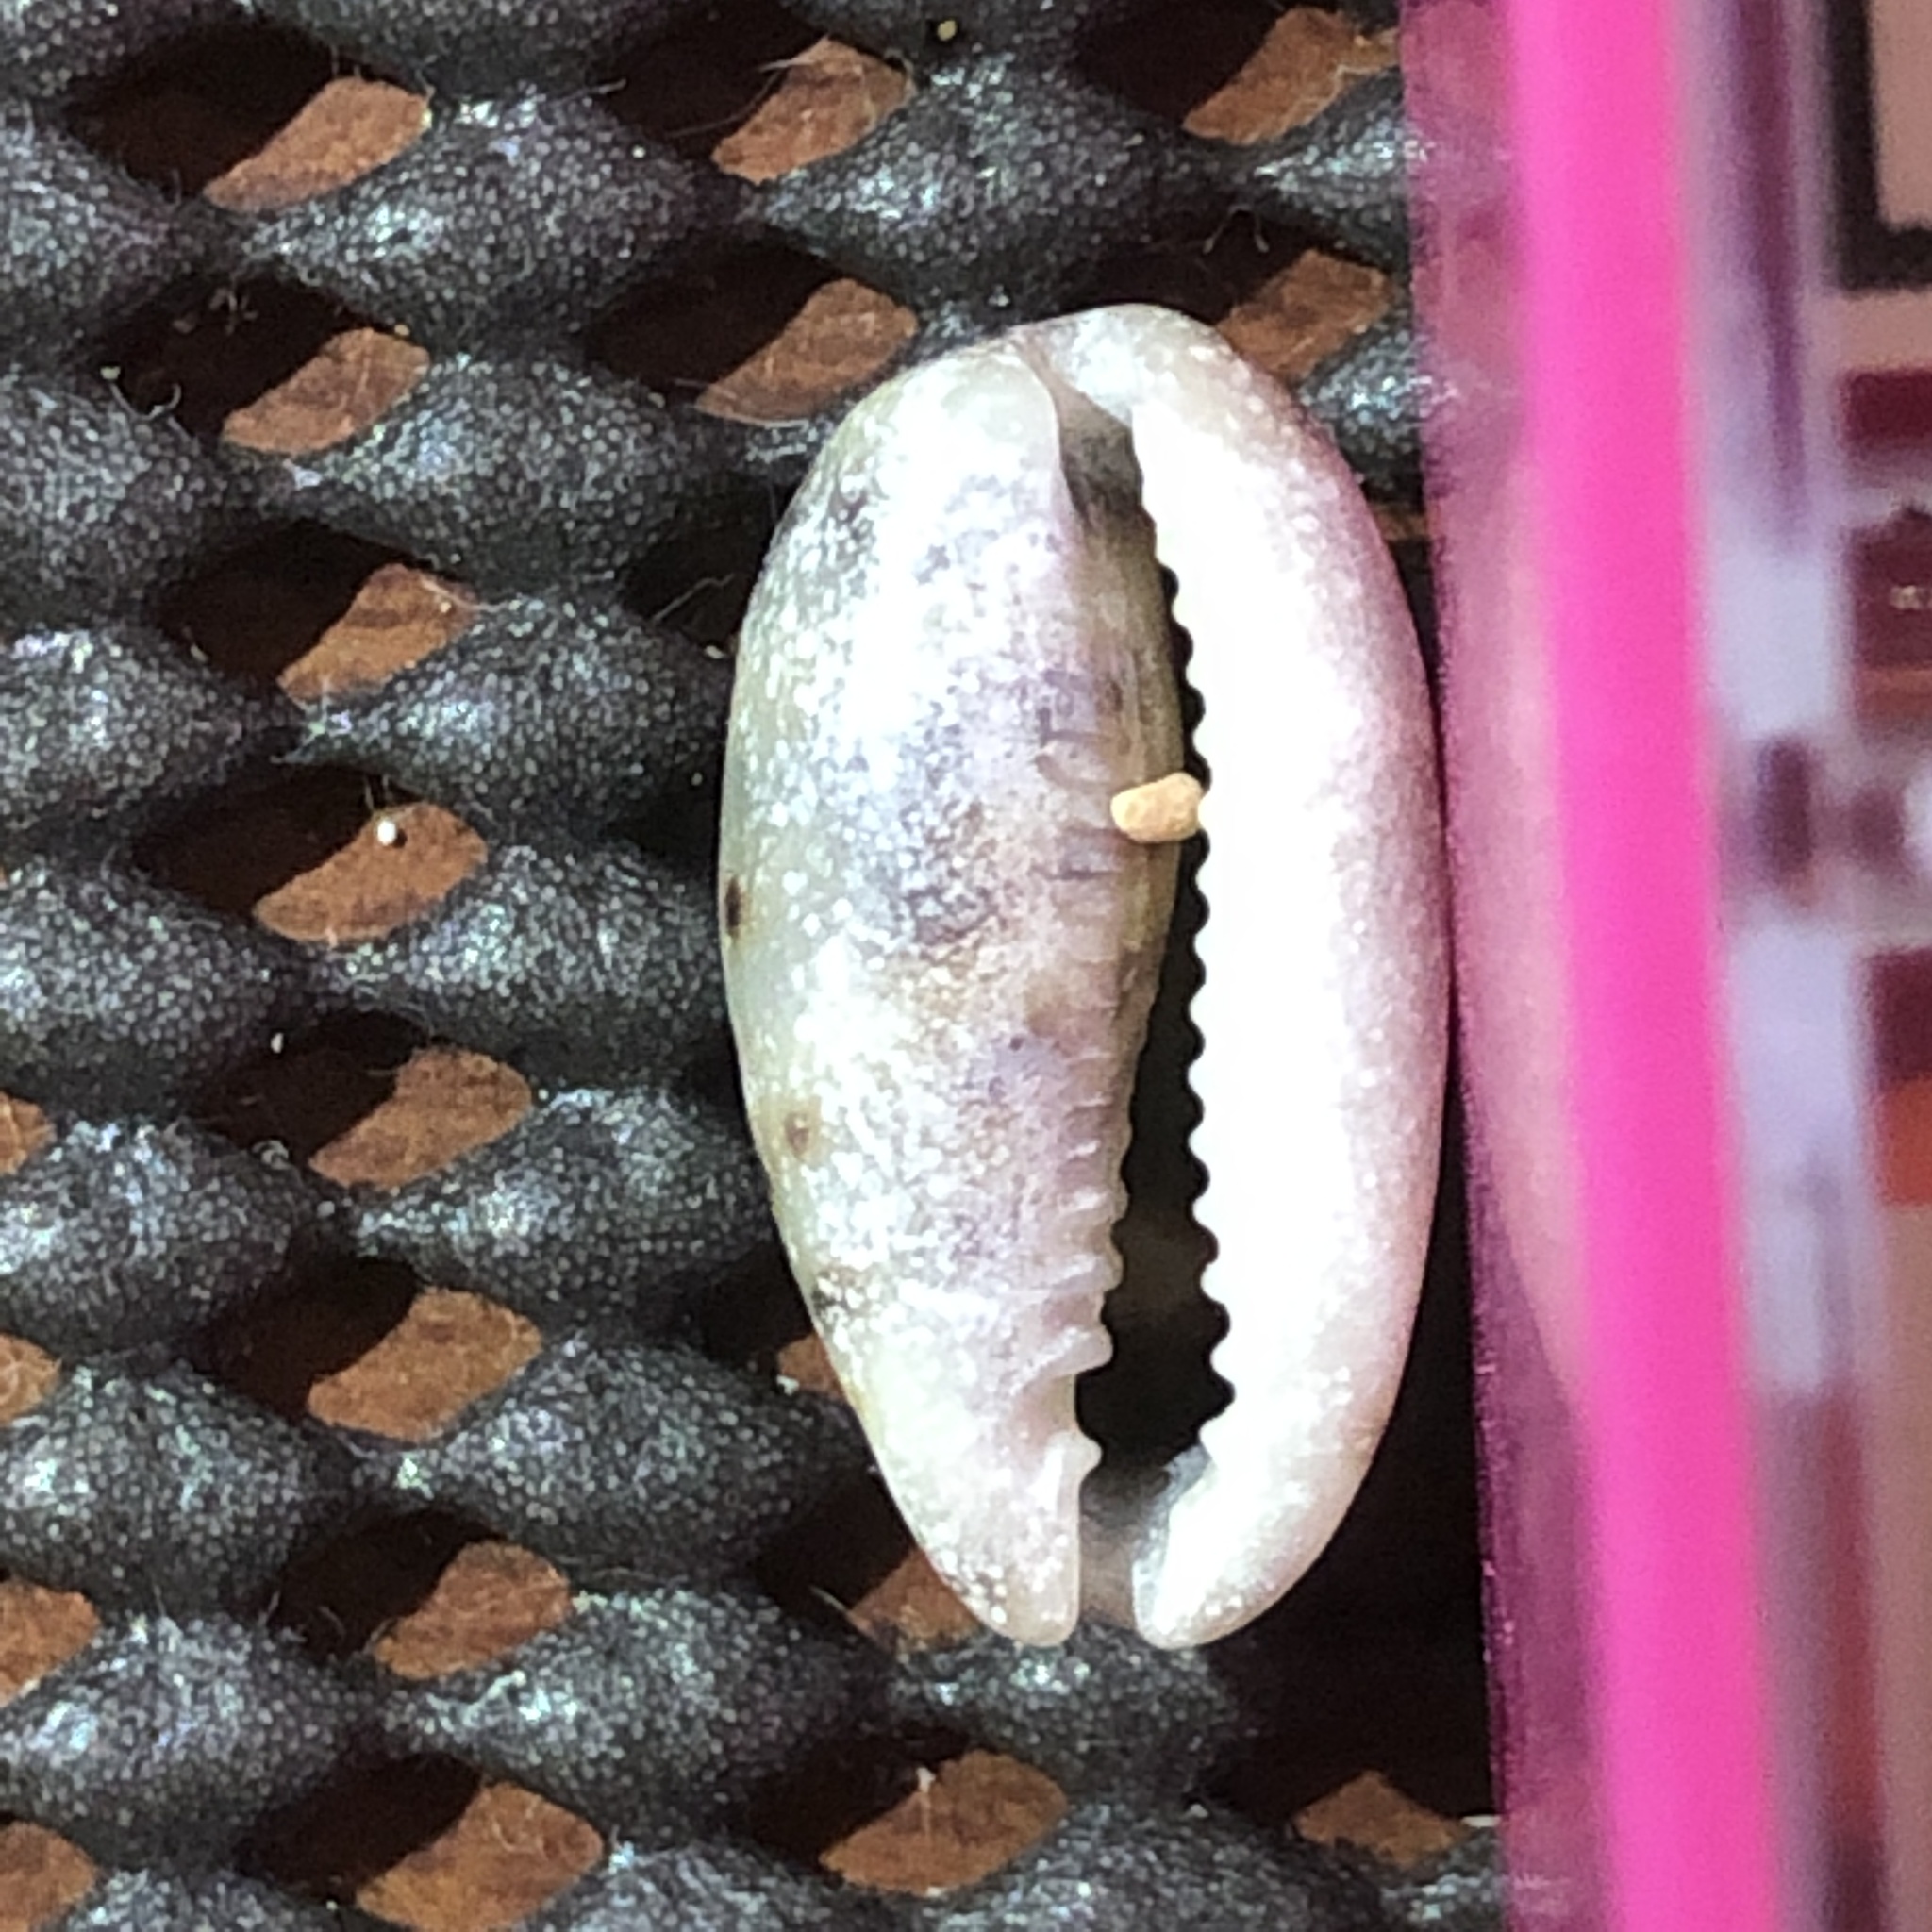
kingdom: Animalia
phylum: Mollusca
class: Gastropoda
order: Littorinimorpha
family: Cypraeidae
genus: Melicerona
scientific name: Melicerona listeri
